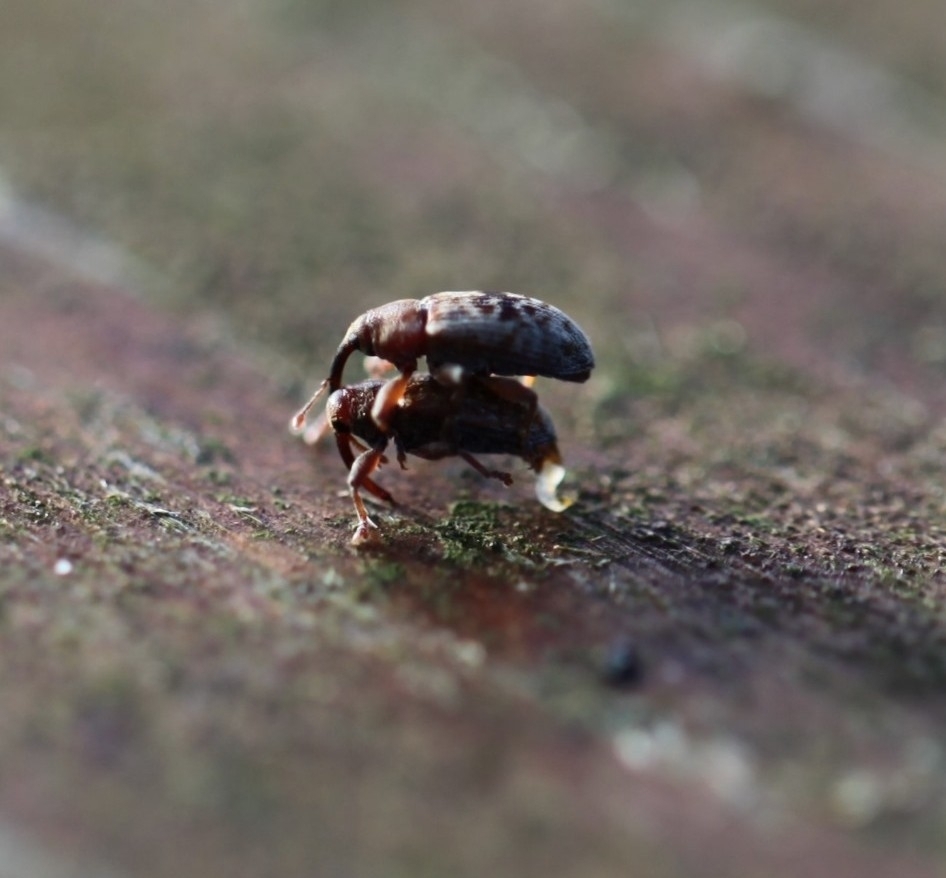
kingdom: Animalia
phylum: Arthropoda
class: Insecta
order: Coleoptera
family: Curculionidae
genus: Dorytomus
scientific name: Dorytomus melanophthalmus
